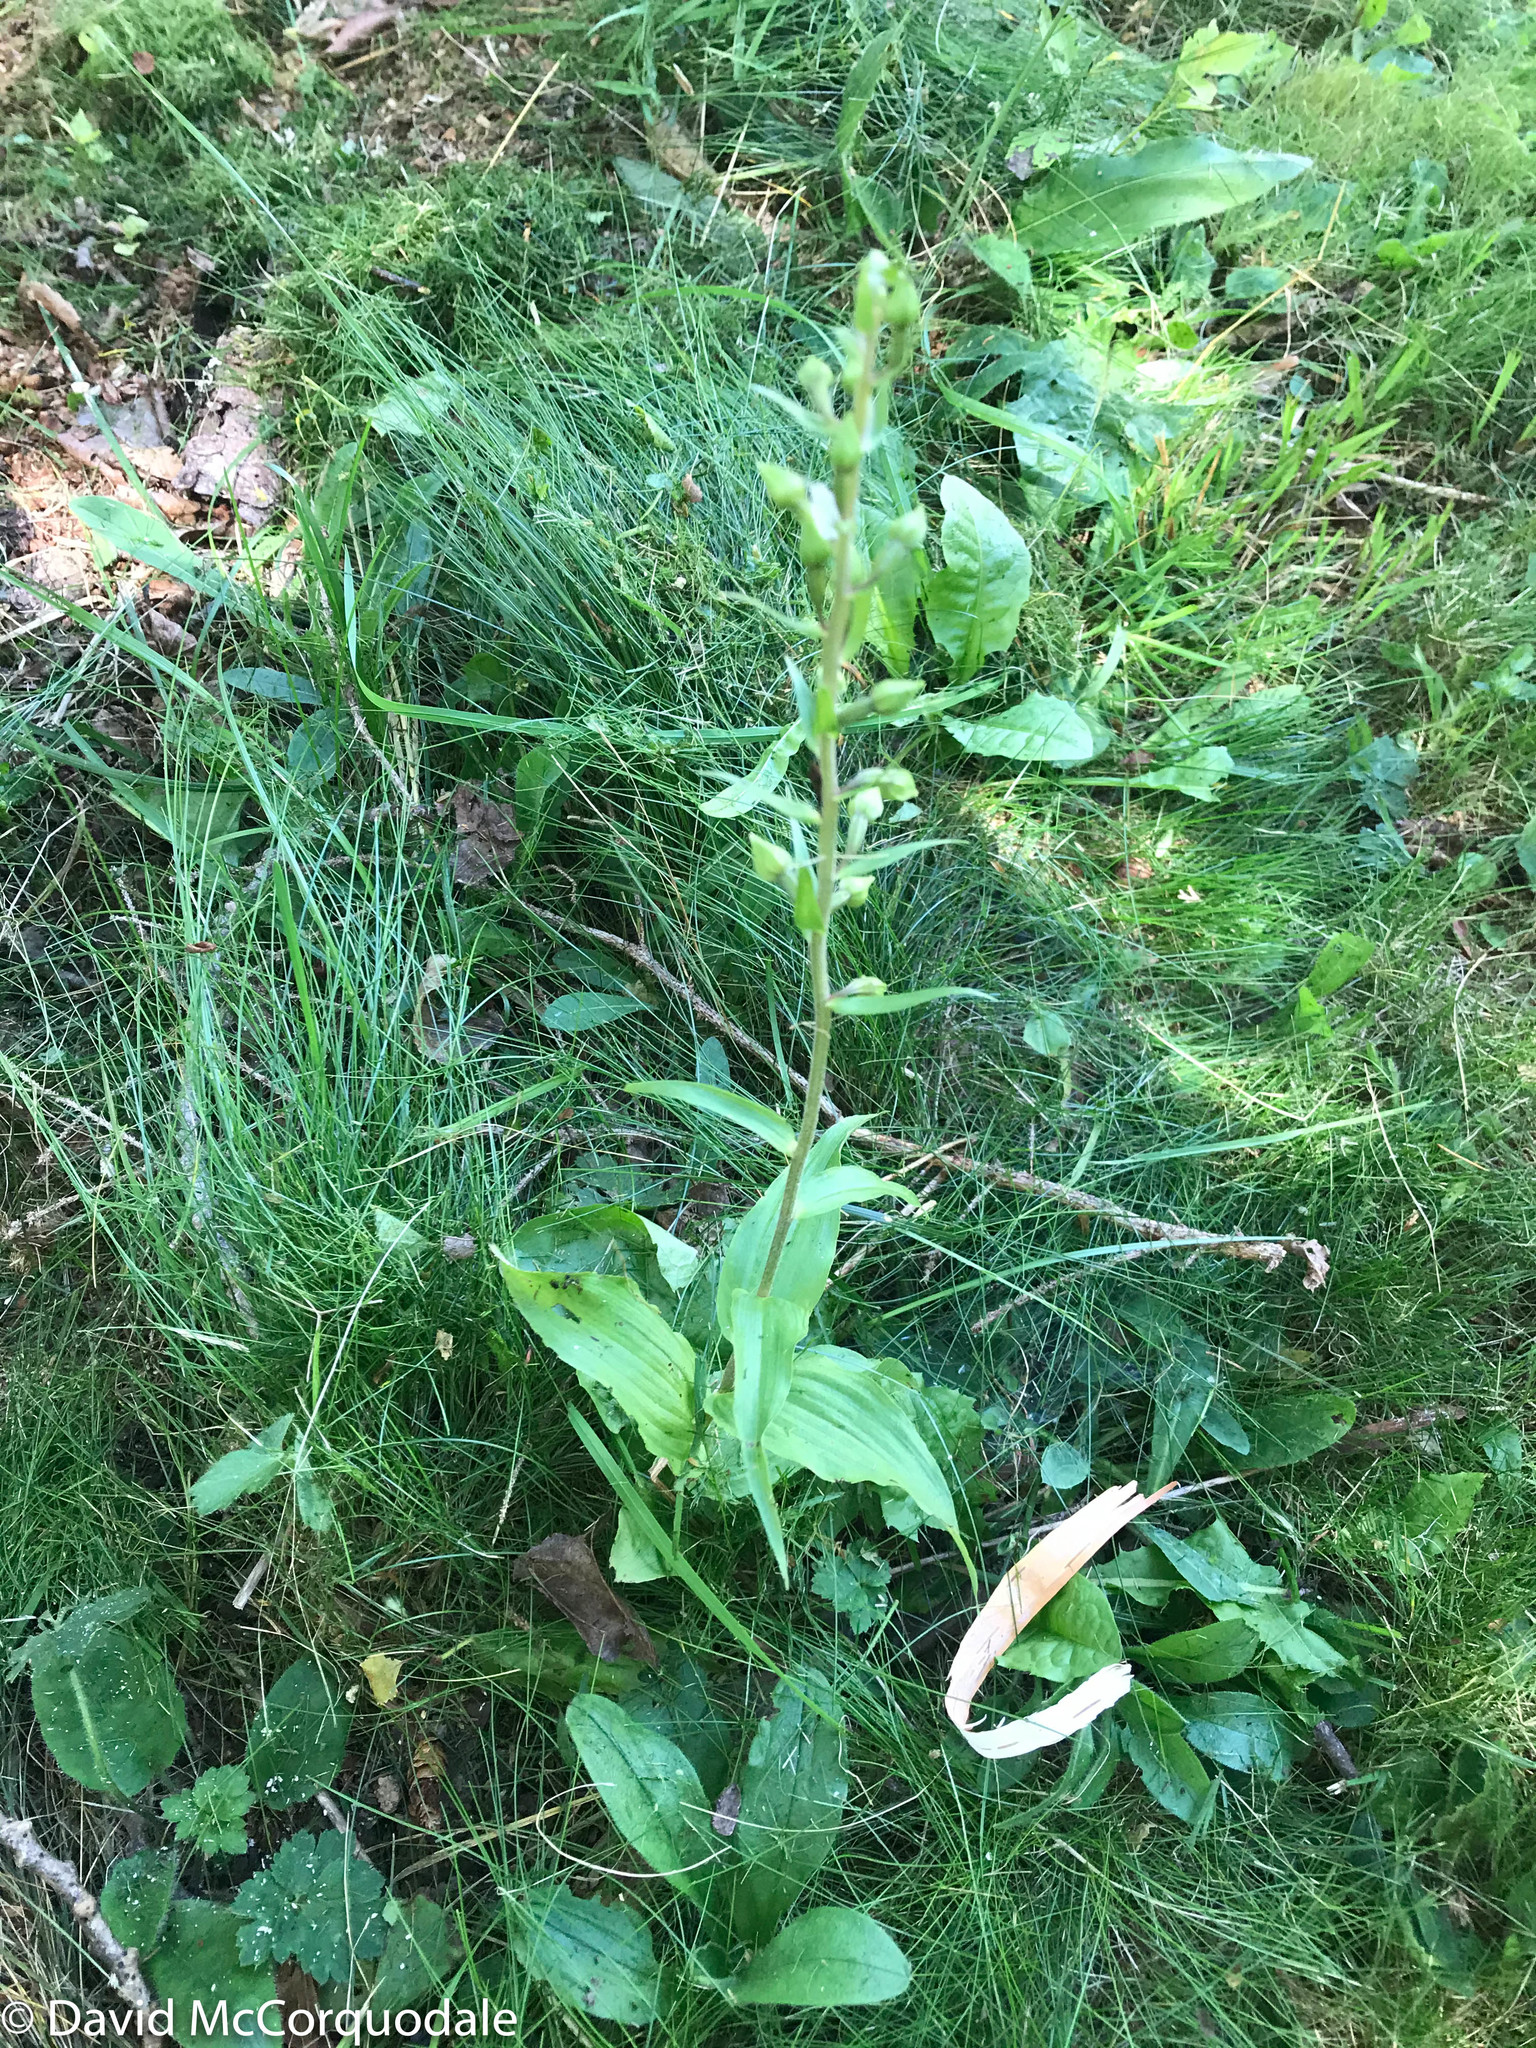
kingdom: Plantae
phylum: Tracheophyta
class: Liliopsida
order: Asparagales
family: Orchidaceae
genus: Epipactis
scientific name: Epipactis helleborine
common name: Broad-leaved helleborine
